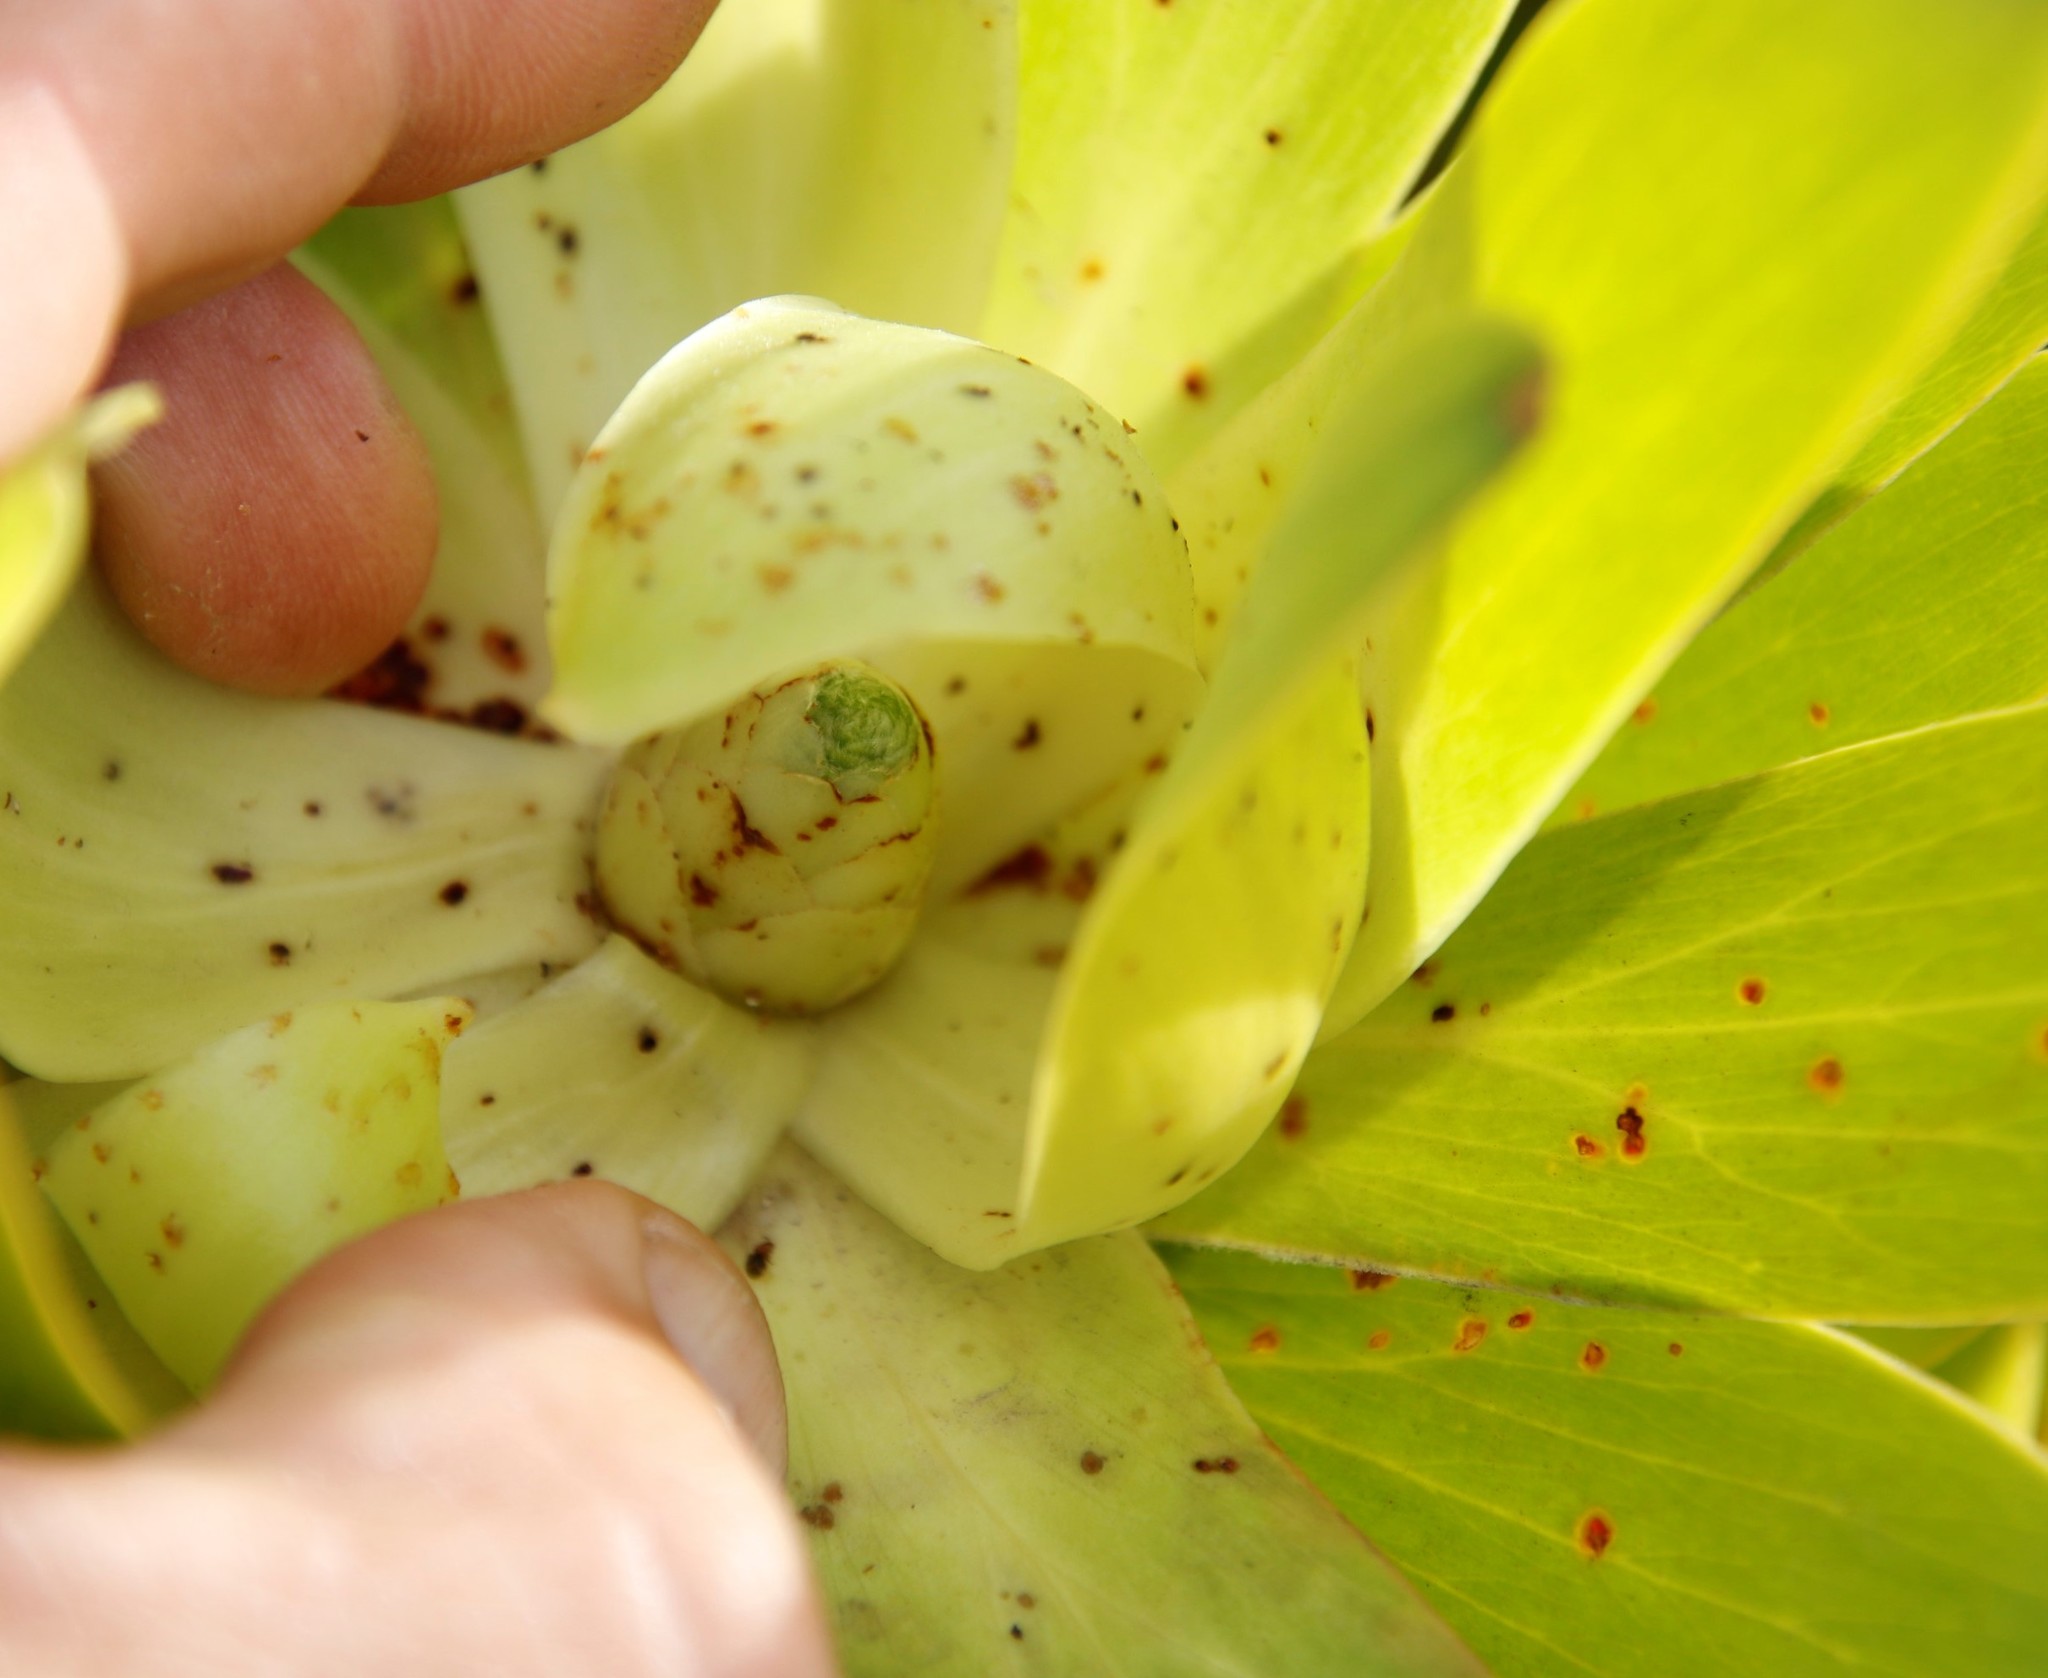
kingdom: Plantae
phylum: Tracheophyta
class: Magnoliopsida
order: Proteales
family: Proteaceae
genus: Leucadendron
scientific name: Leucadendron laureolum
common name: Golden sunshinebush
